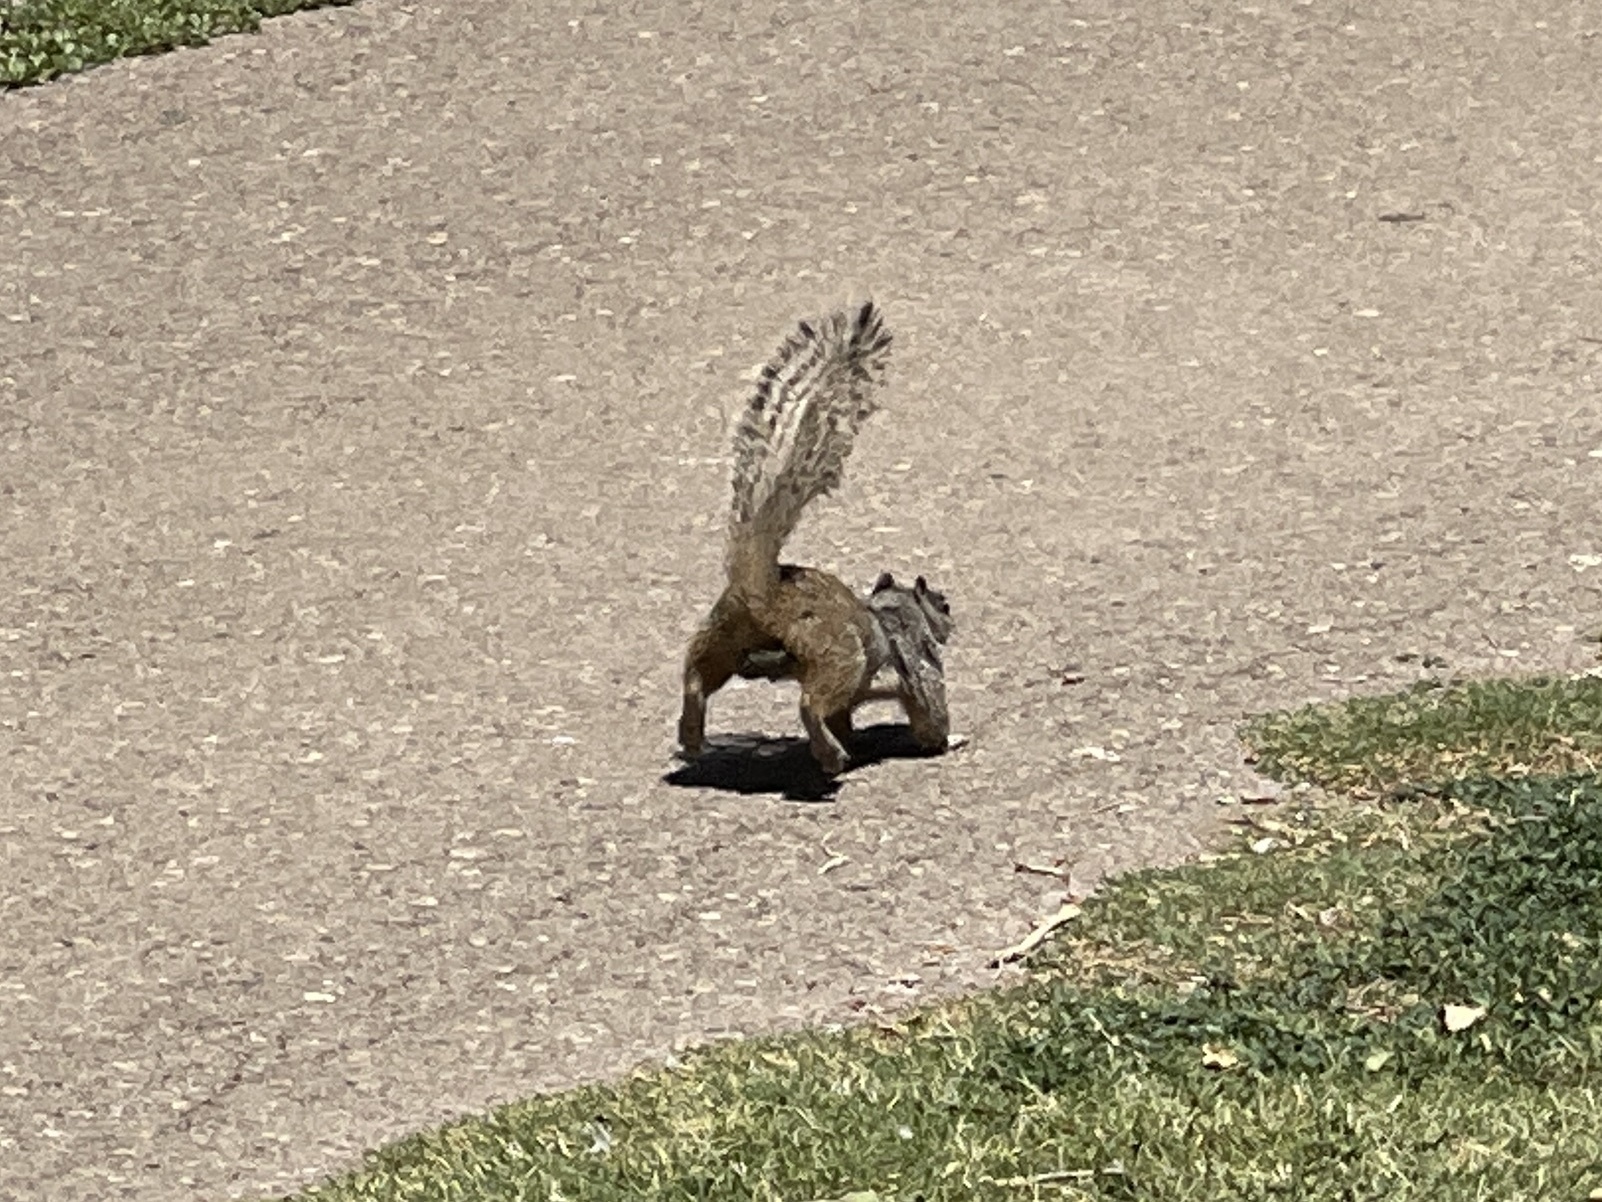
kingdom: Animalia
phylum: Chordata
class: Mammalia
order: Rodentia
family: Sciuridae
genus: Otospermophilus
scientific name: Otospermophilus variegatus
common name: Rock squirrel
